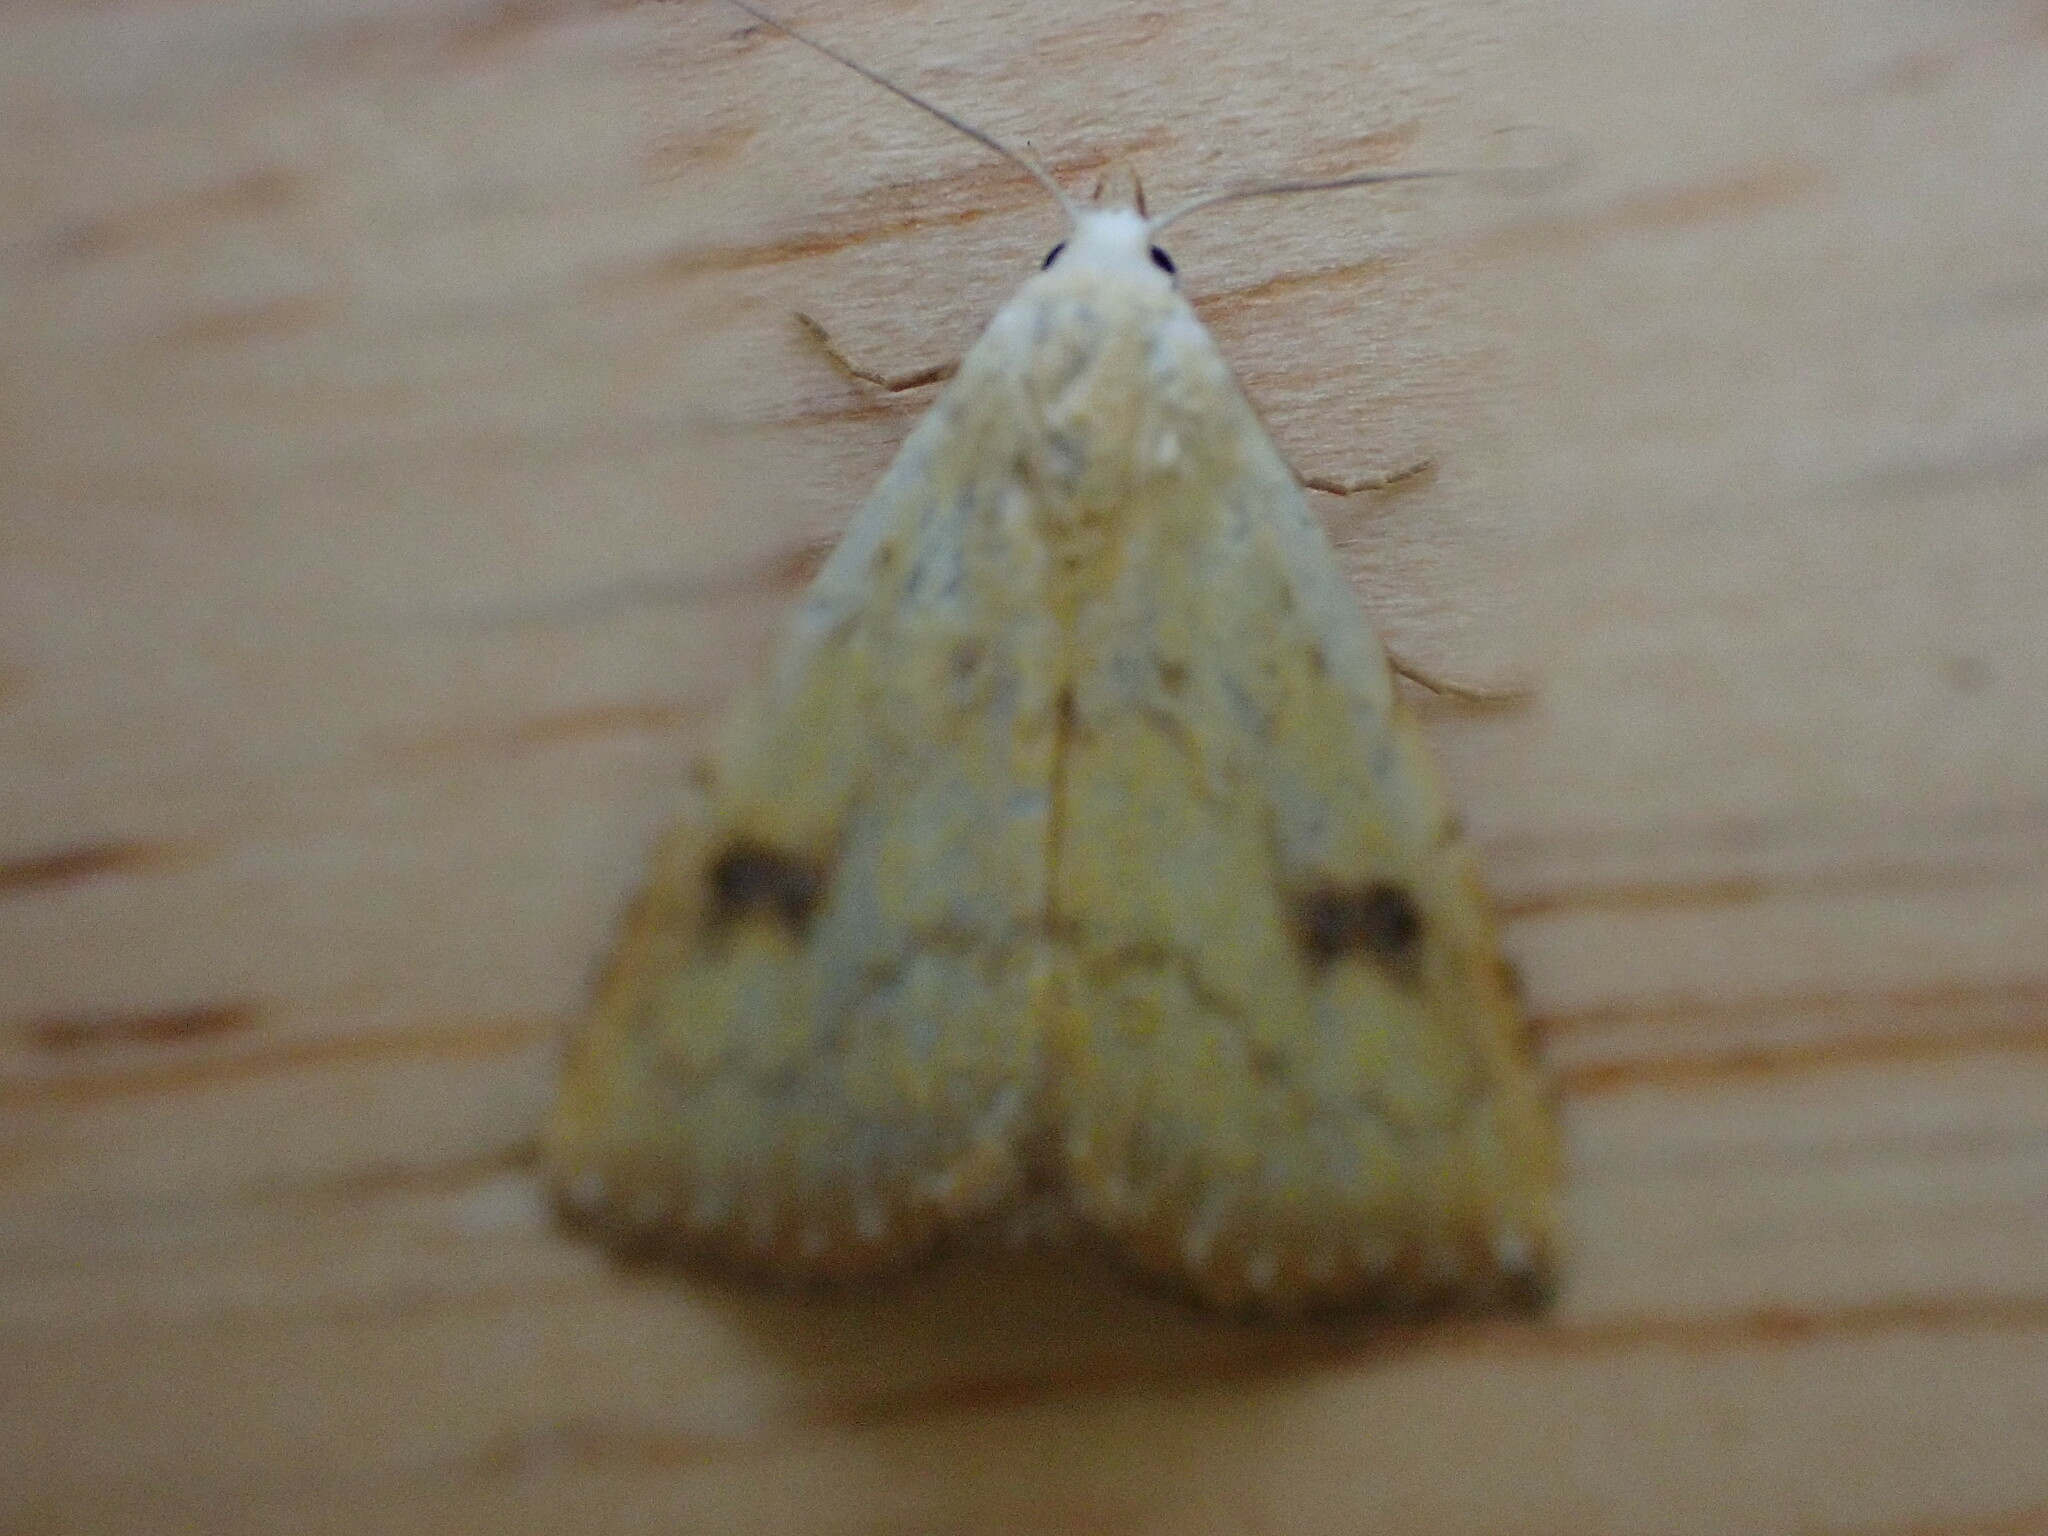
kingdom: Animalia
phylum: Arthropoda
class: Insecta
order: Lepidoptera
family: Erebidae
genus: Rivula
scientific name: Rivula sericealis
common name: Straw dot
